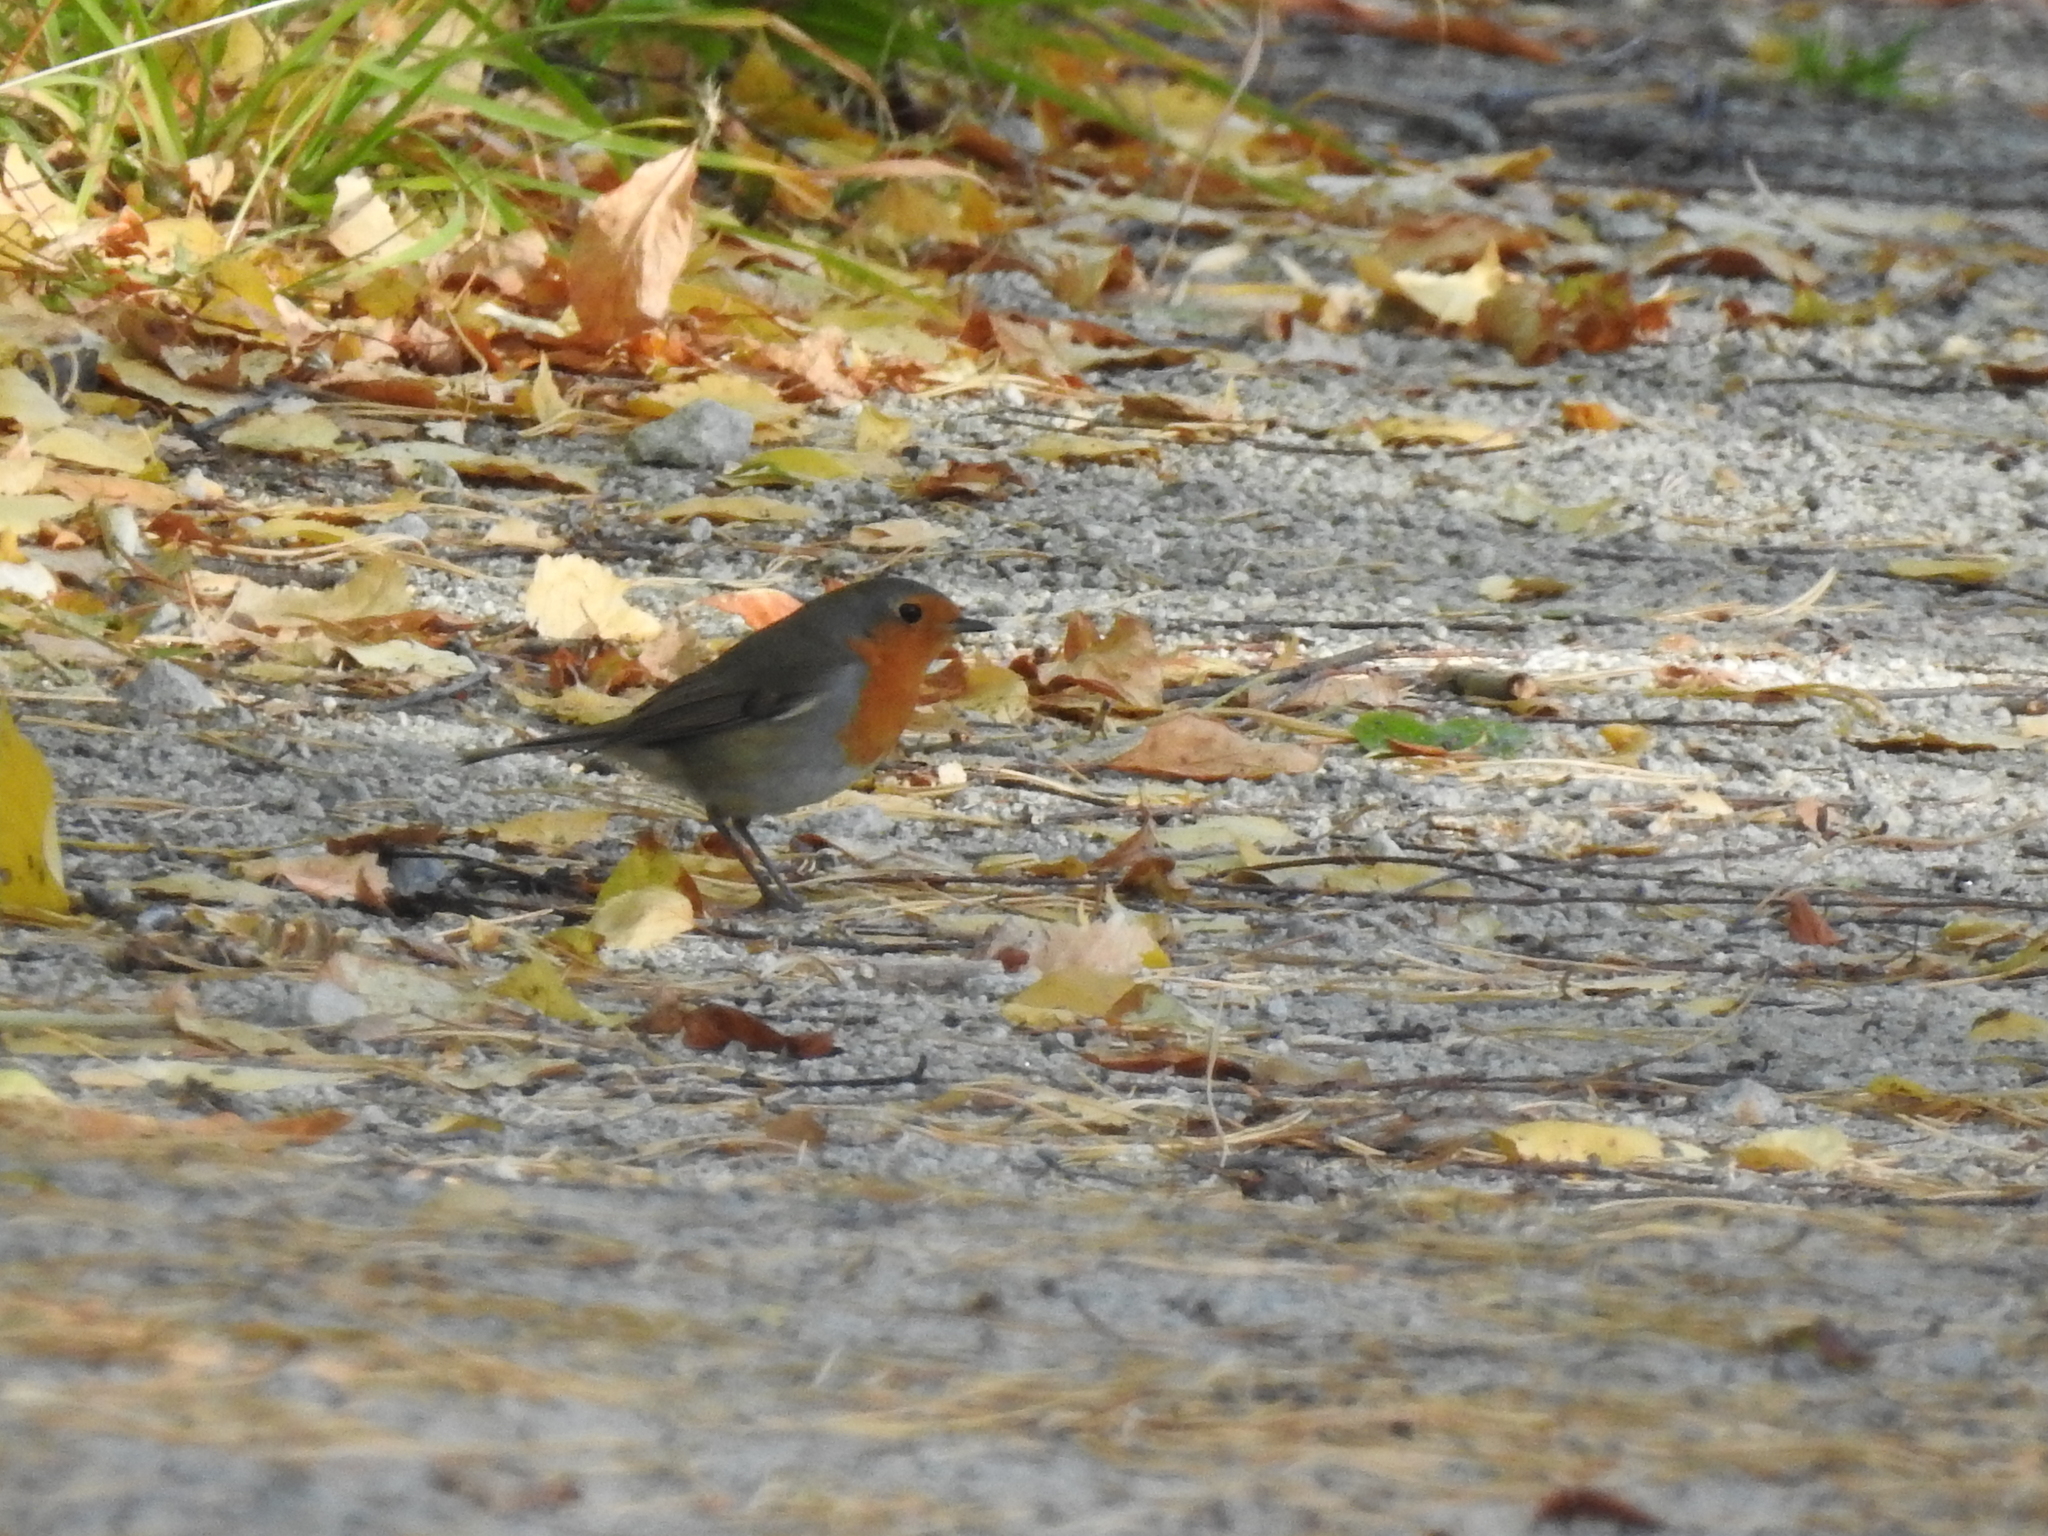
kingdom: Animalia
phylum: Chordata
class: Aves
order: Passeriformes
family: Muscicapidae
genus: Erithacus
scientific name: Erithacus rubecula
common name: European robin
